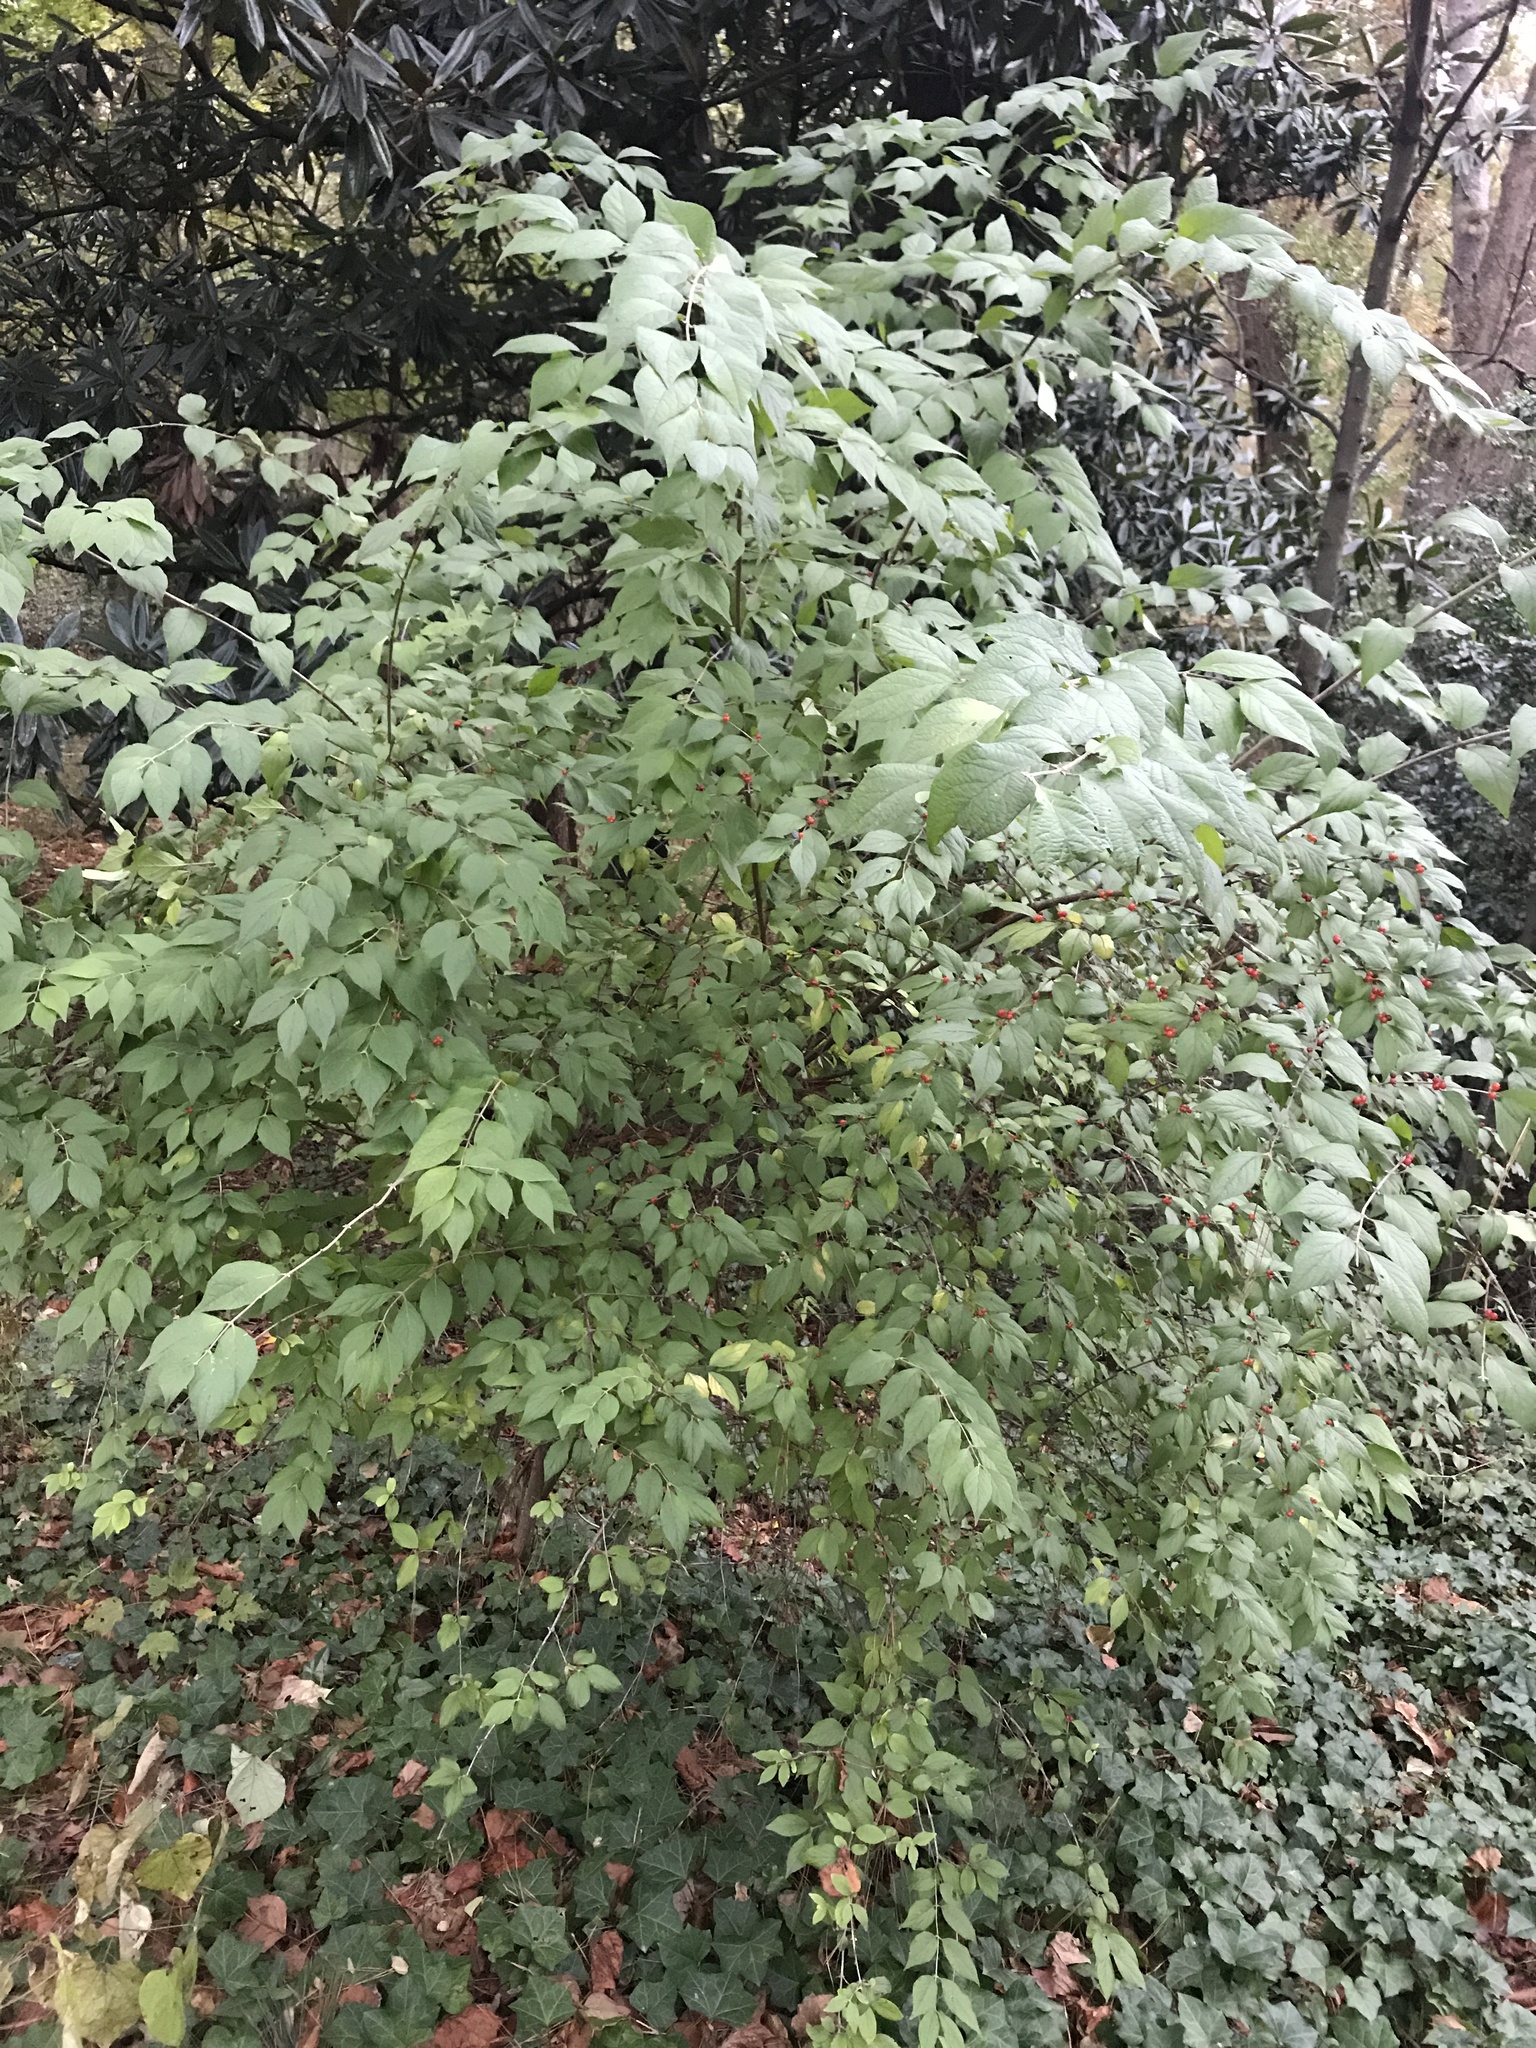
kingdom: Plantae
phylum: Tracheophyta
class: Magnoliopsida
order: Dipsacales
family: Caprifoliaceae
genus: Lonicera
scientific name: Lonicera maackii
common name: Amur honeysuckle
